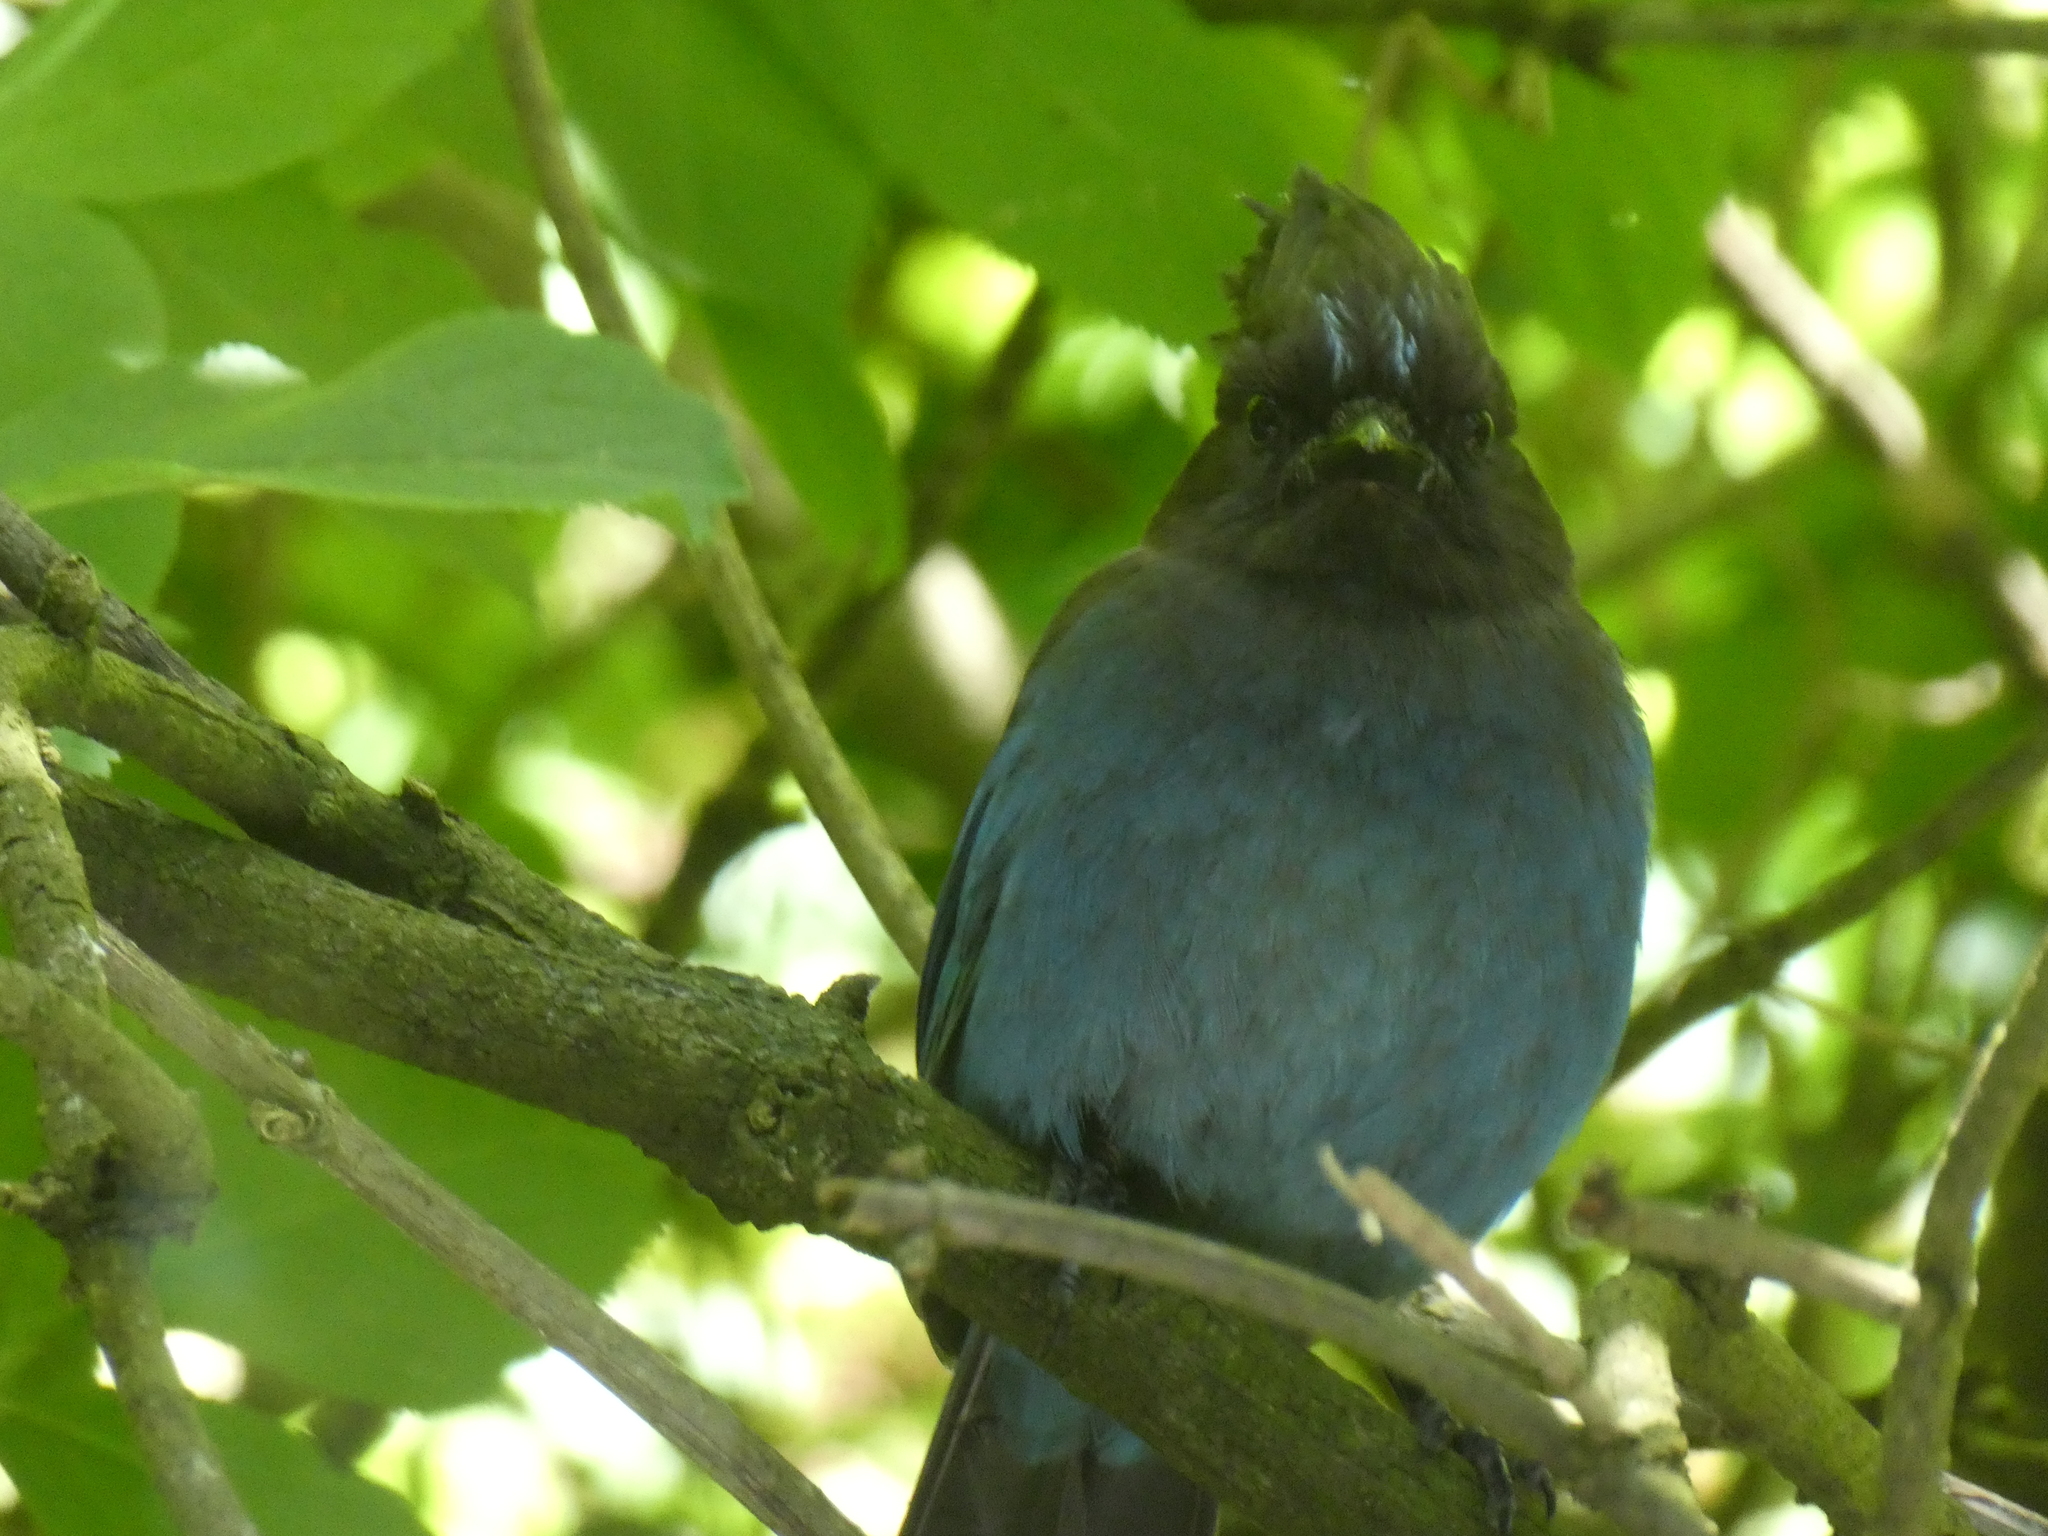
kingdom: Animalia
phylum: Chordata
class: Aves
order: Passeriformes
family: Corvidae
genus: Cyanocitta
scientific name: Cyanocitta stelleri
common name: Steller's jay
